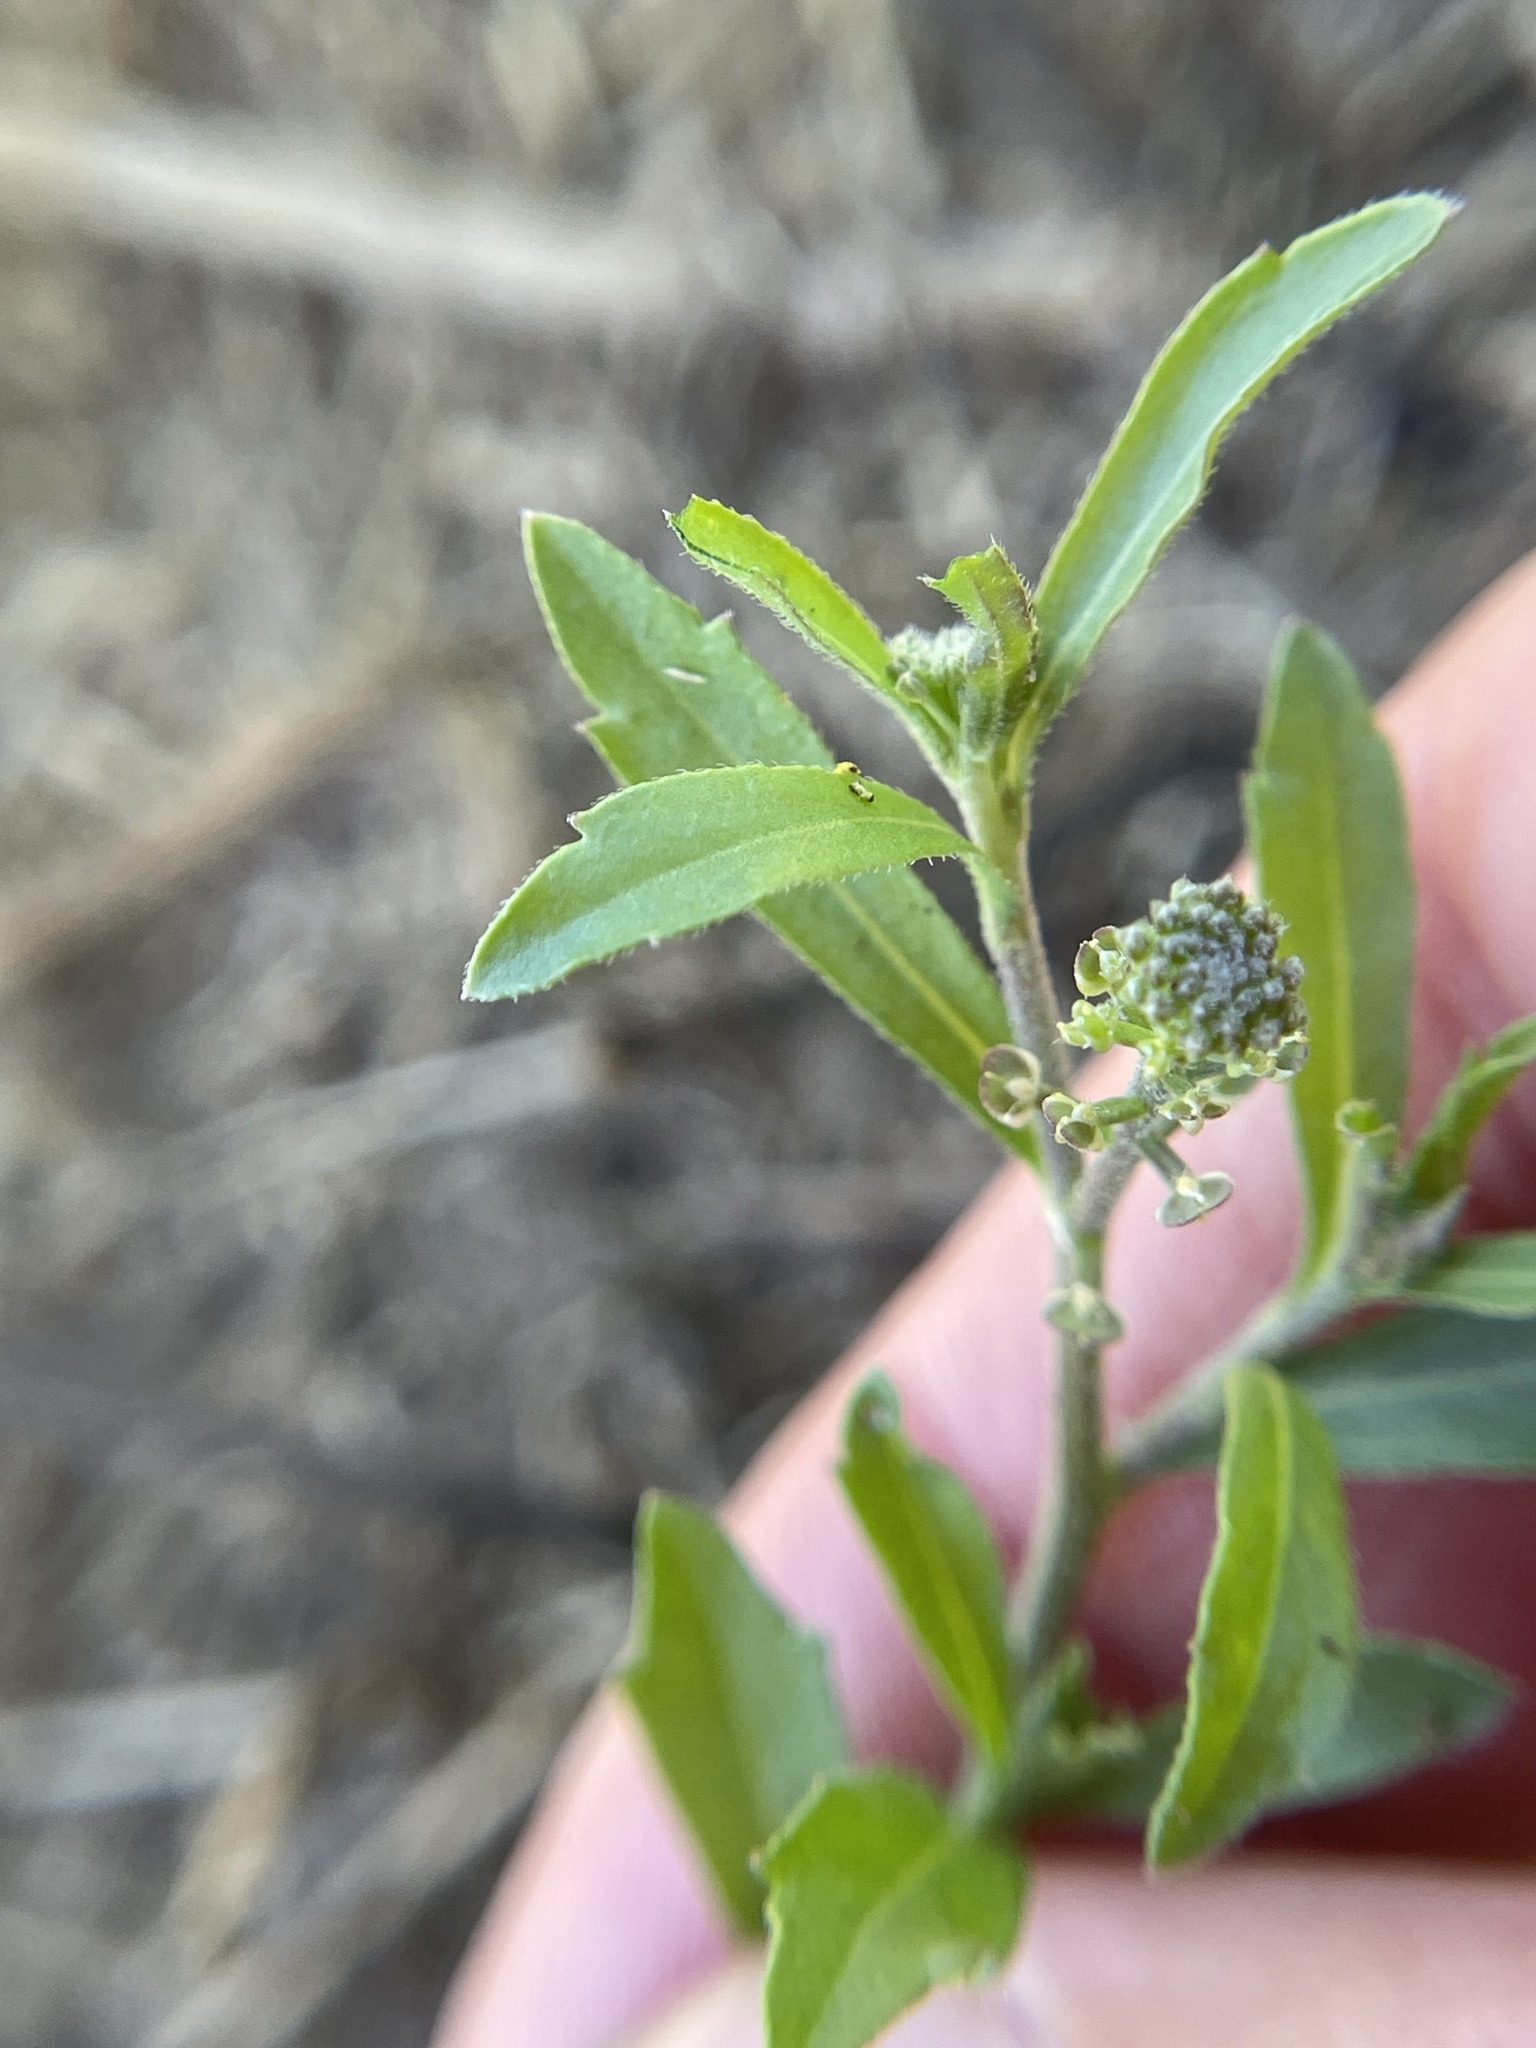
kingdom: Plantae
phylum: Tracheophyta
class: Magnoliopsida
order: Brassicales
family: Brassicaceae
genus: Lepidium
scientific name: Lepidium virginicum
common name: Least pepperwort
